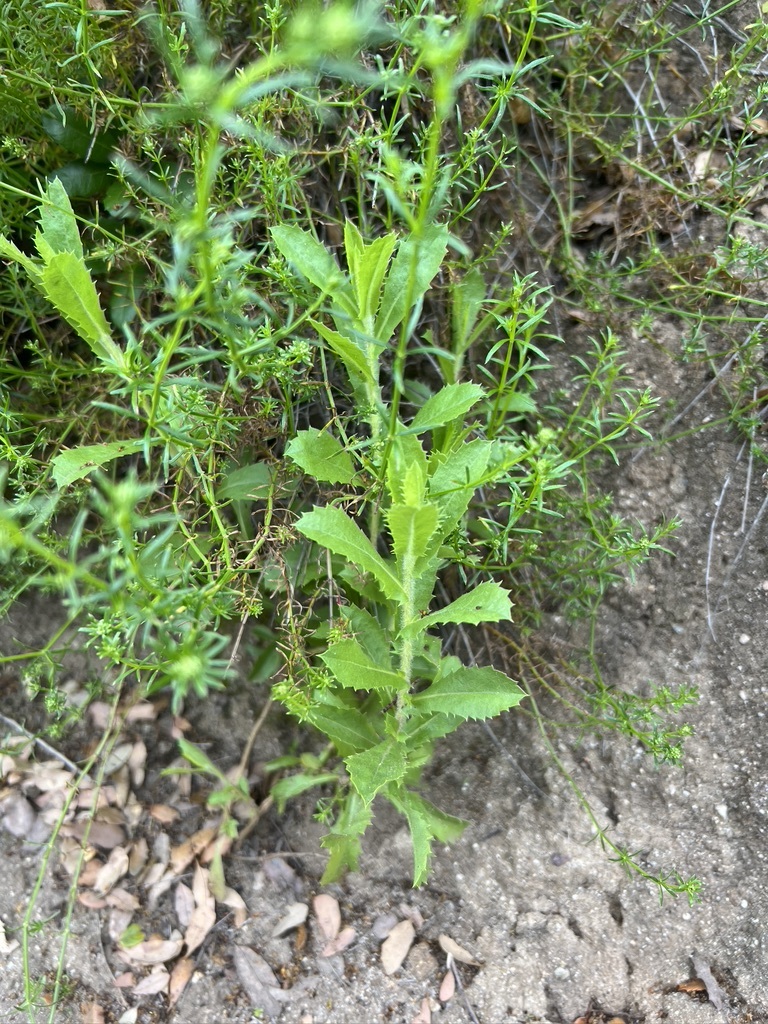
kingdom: Plantae
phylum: Tracheophyta
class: Magnoliopsida
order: Asterales
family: Asteraceae
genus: Hazardia
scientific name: Hazardia squarrosa
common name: Saw-tooth goldenbush
